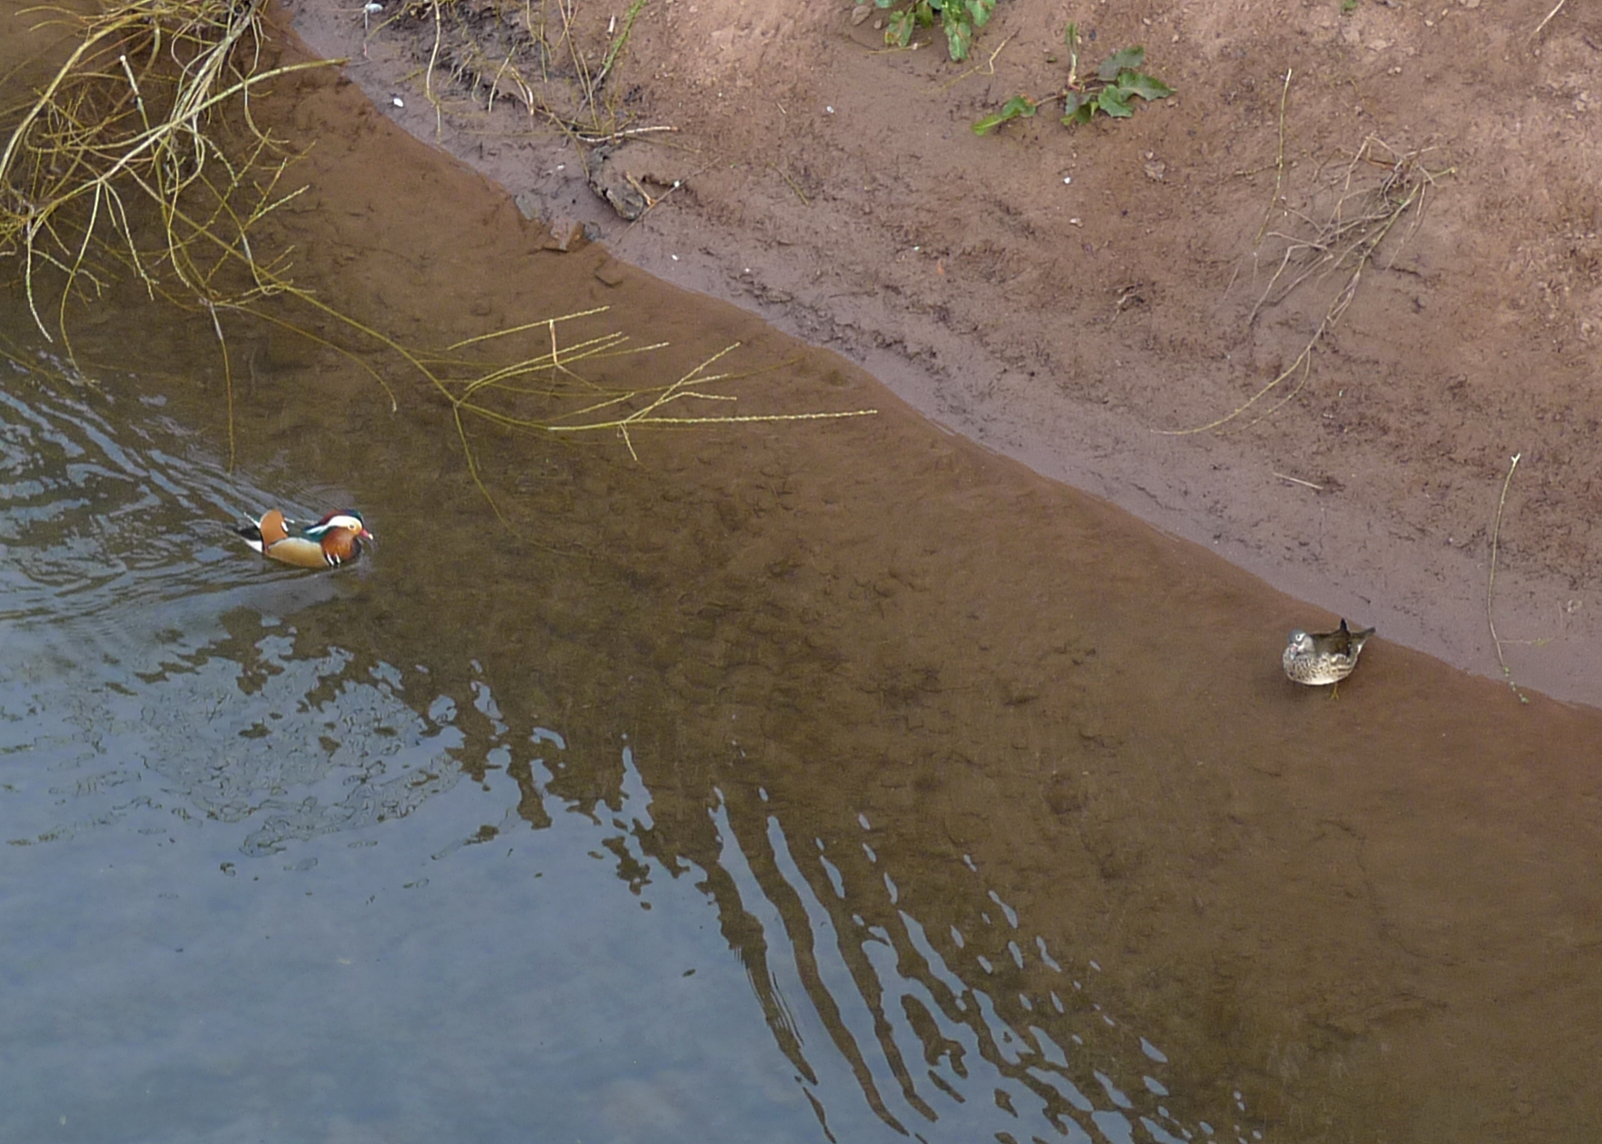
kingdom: Animalia
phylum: Chordata
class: Aves
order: Anseriformes
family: Anatidae
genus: Aix
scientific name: Aix galericulata
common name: Mandarin duck
